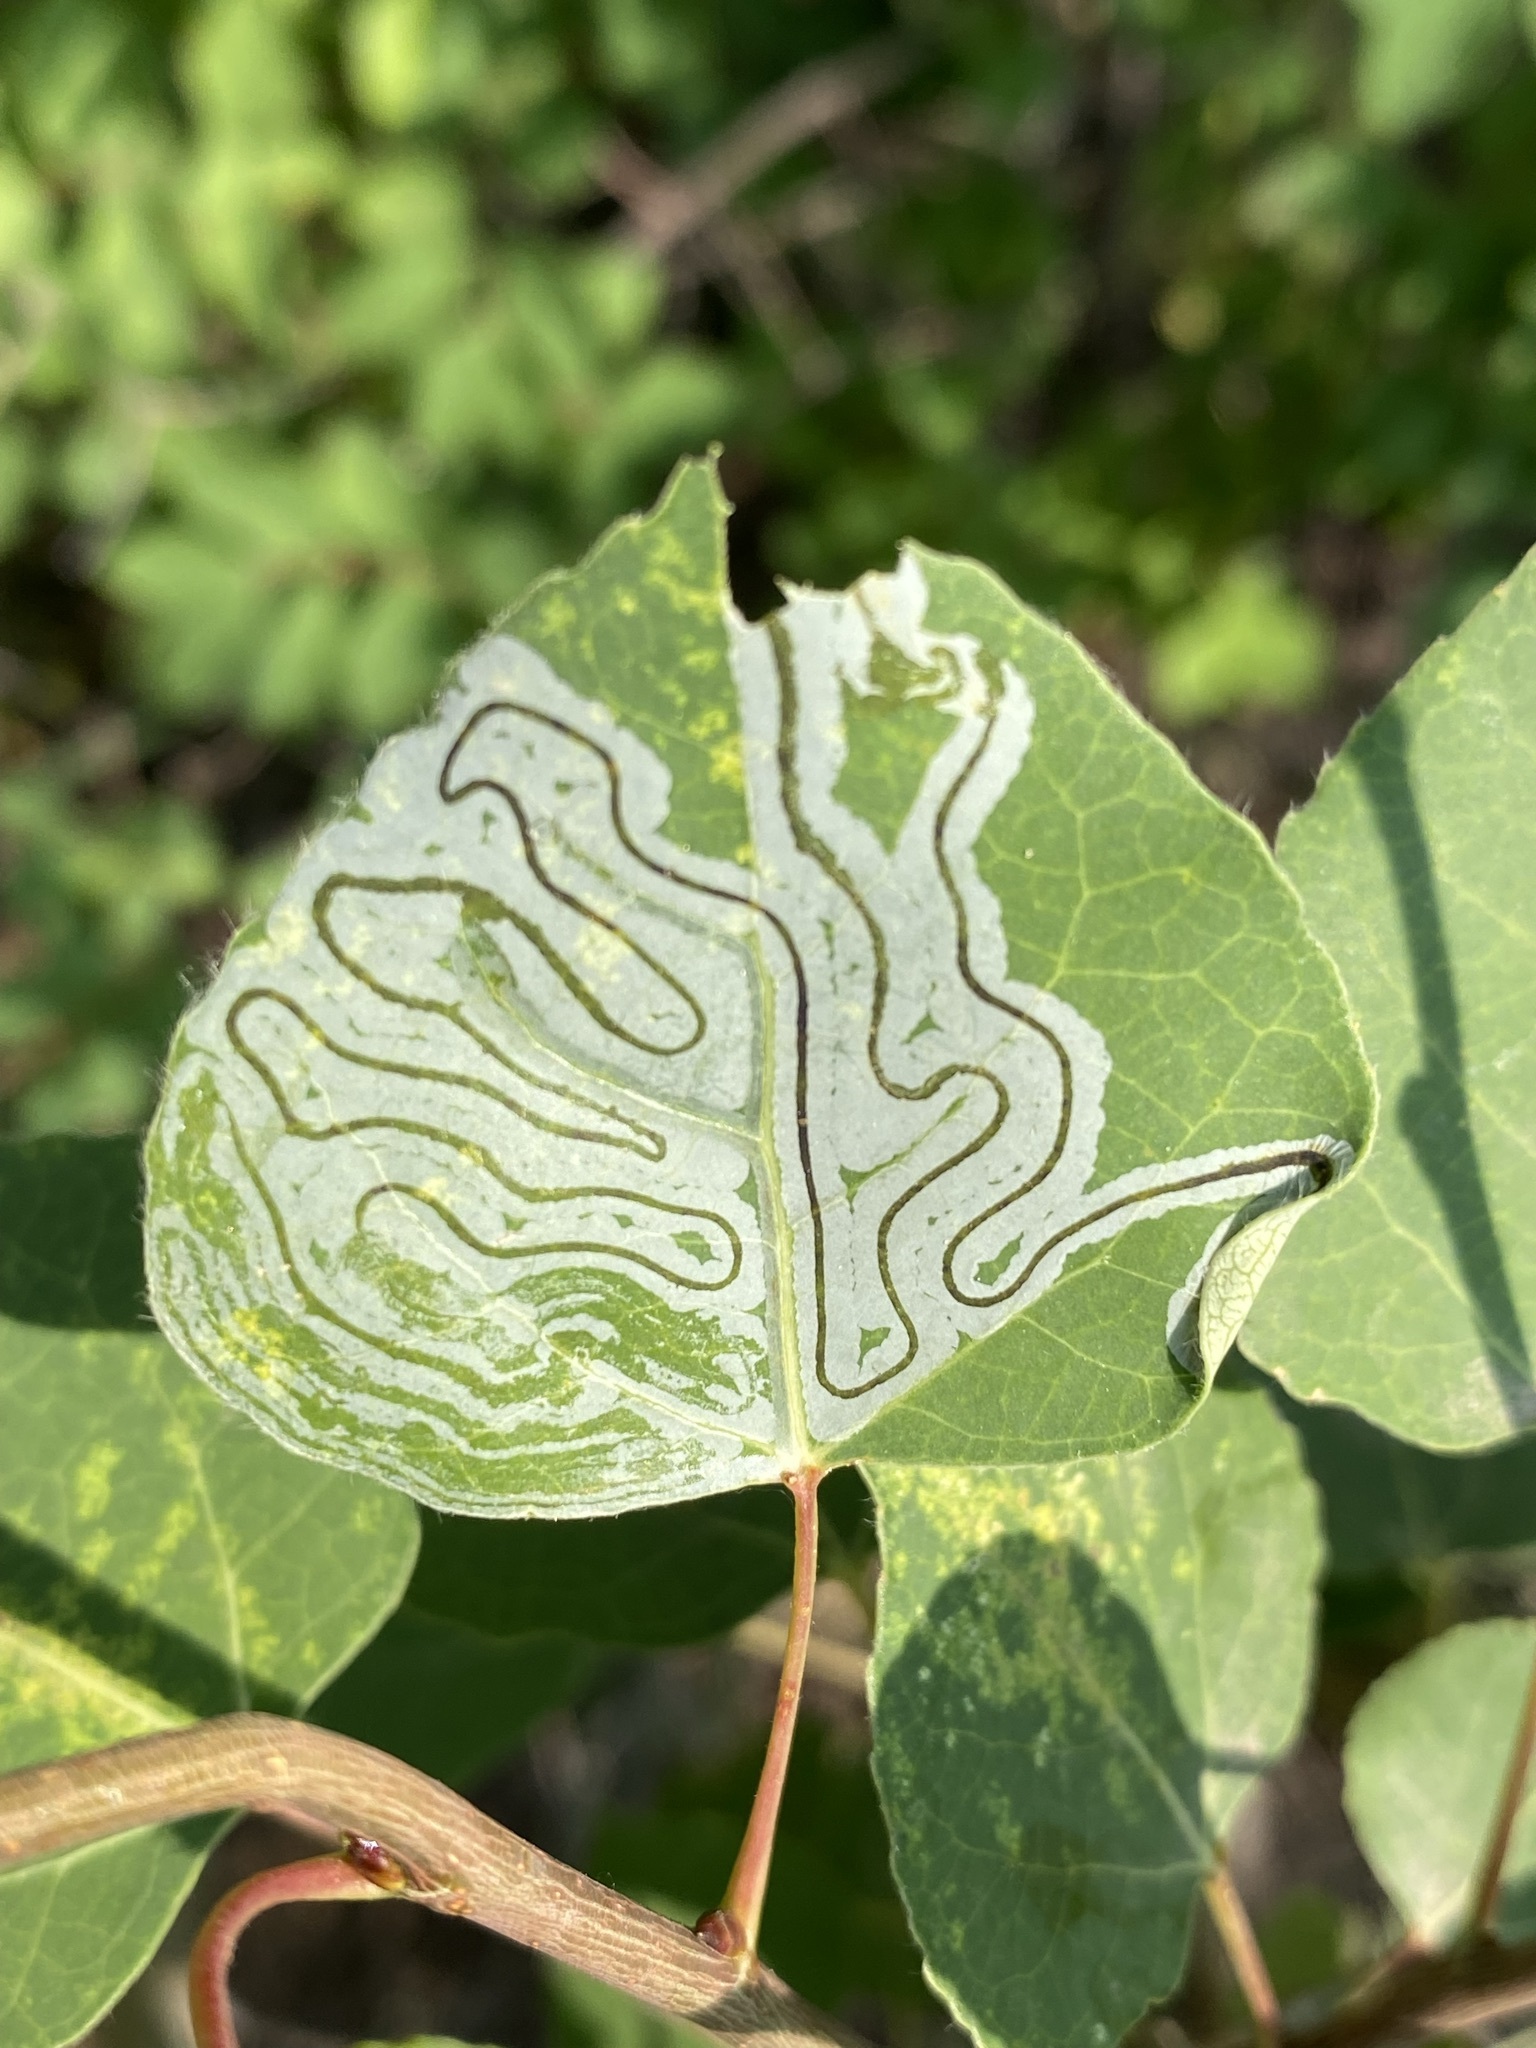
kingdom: Animalia
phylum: Arthropoda
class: Insecta
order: Lepidoptera
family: Gracillariidae
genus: Phyllocnistis
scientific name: Phyllocnistis populiella
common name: Aspen serpentine leafminer moth
